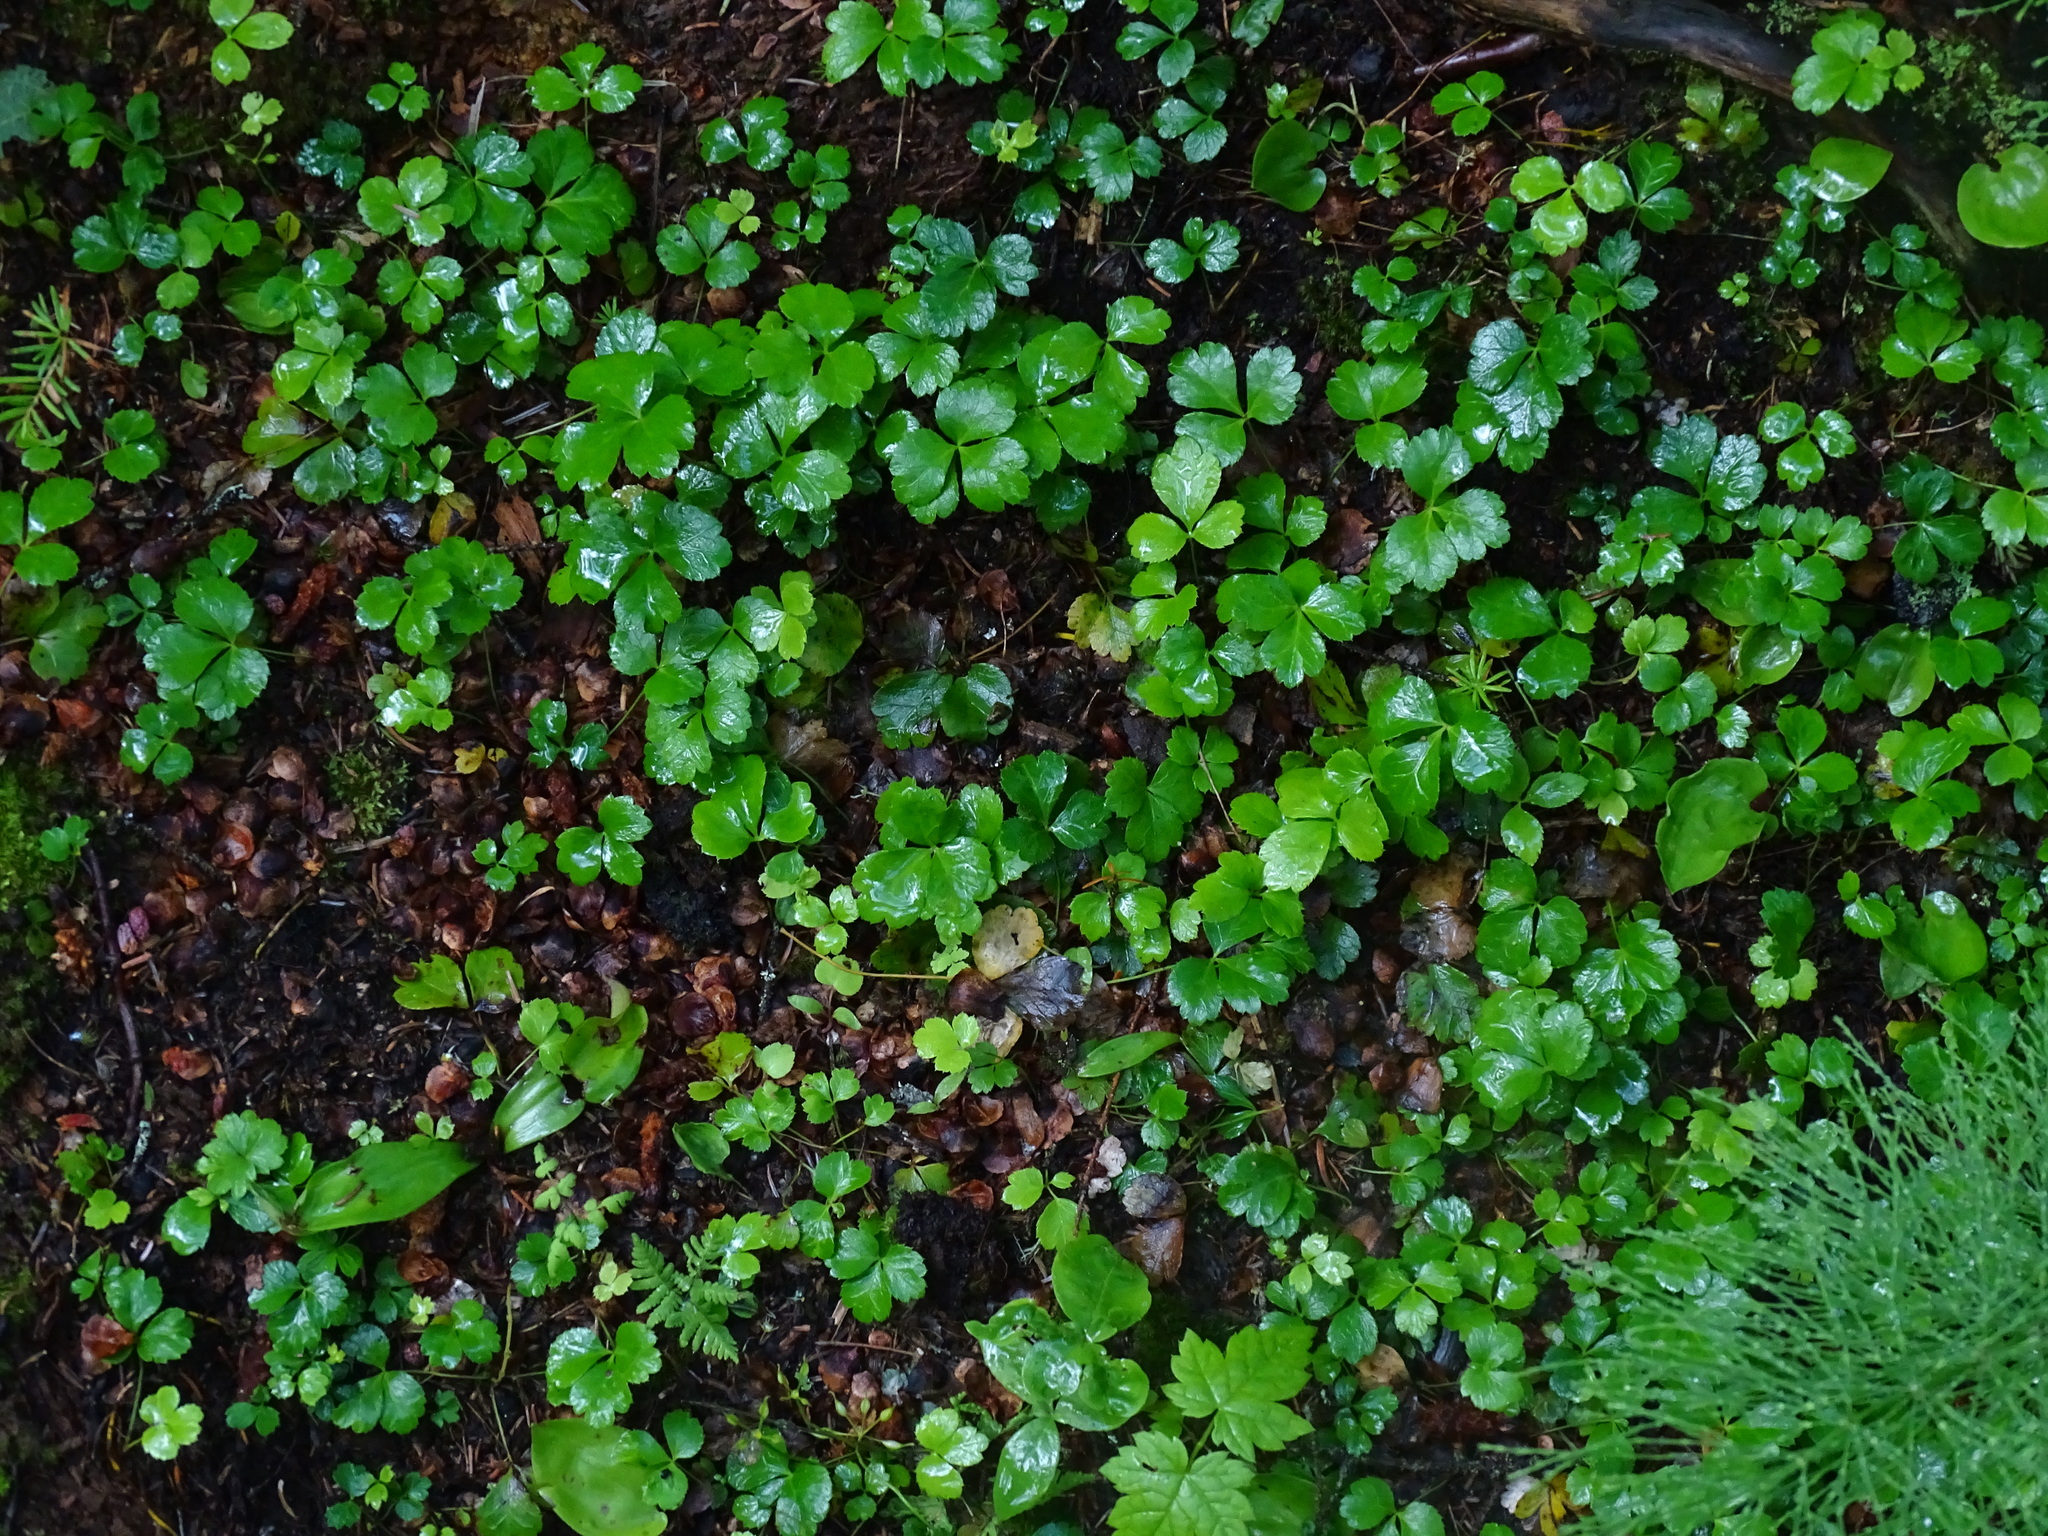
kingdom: Plantae
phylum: Tracheophyta
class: Magnoliopsida
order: Ranunculales
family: Ranunculaceae
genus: Coptis
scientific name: Coptis trifolia
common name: Canker-root
